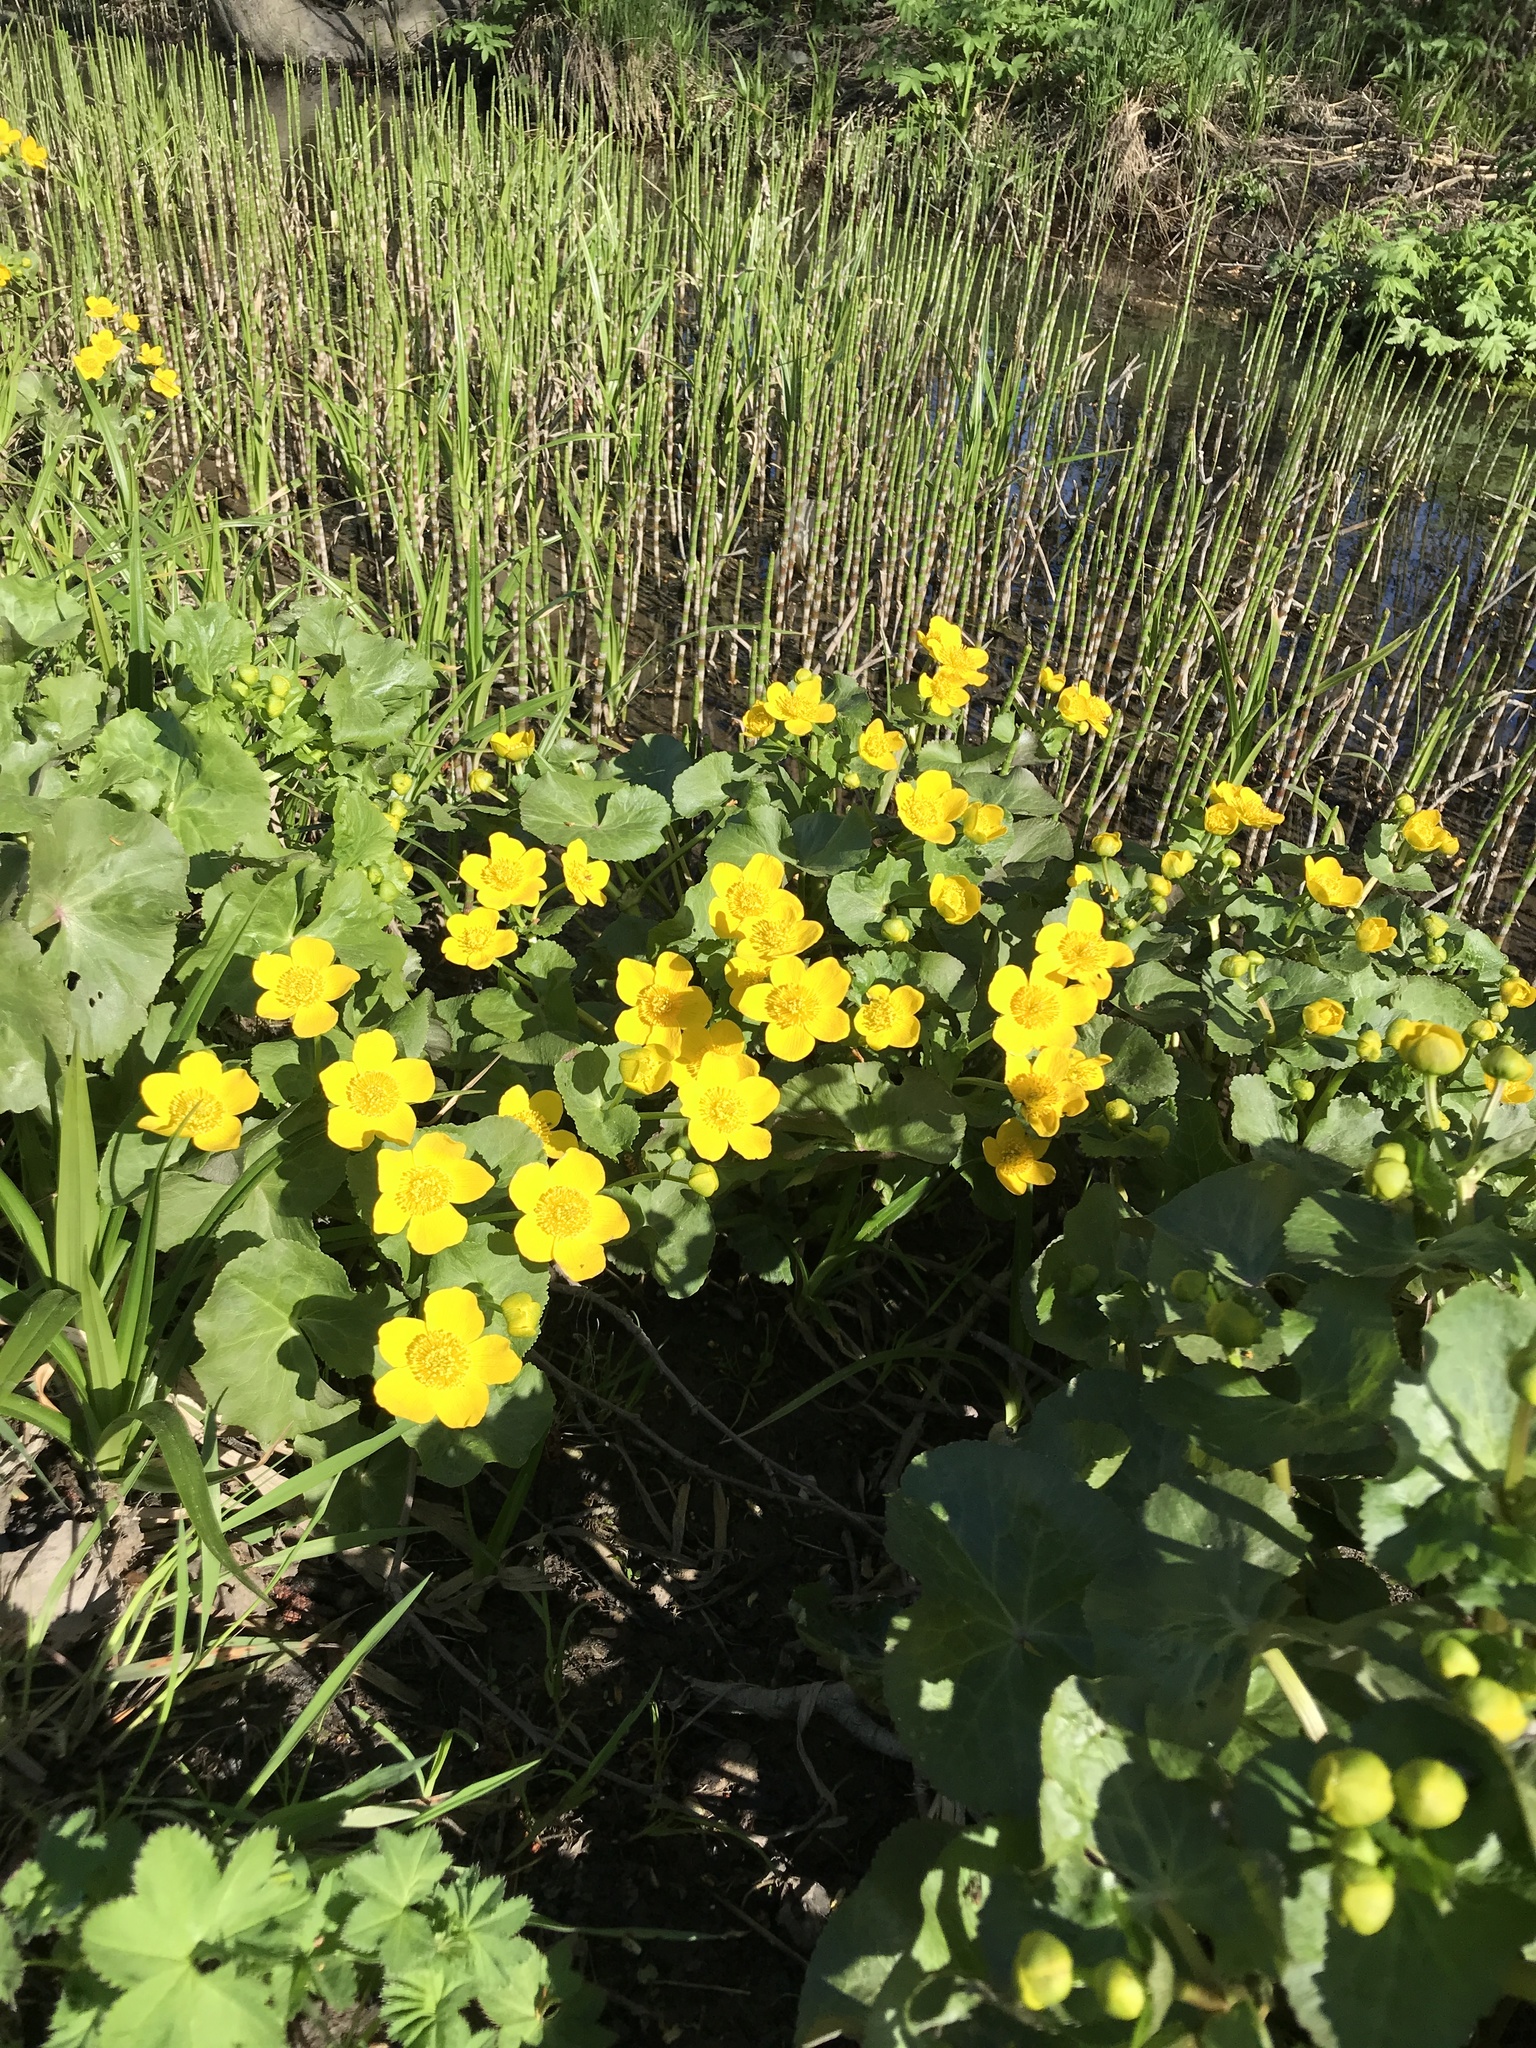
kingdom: Plantae
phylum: Tracheophyta
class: Magnoliopsida
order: Ranunculales
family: Ranunculaceae
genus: Caltha
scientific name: Caltha palustris
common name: Marsh marigold
